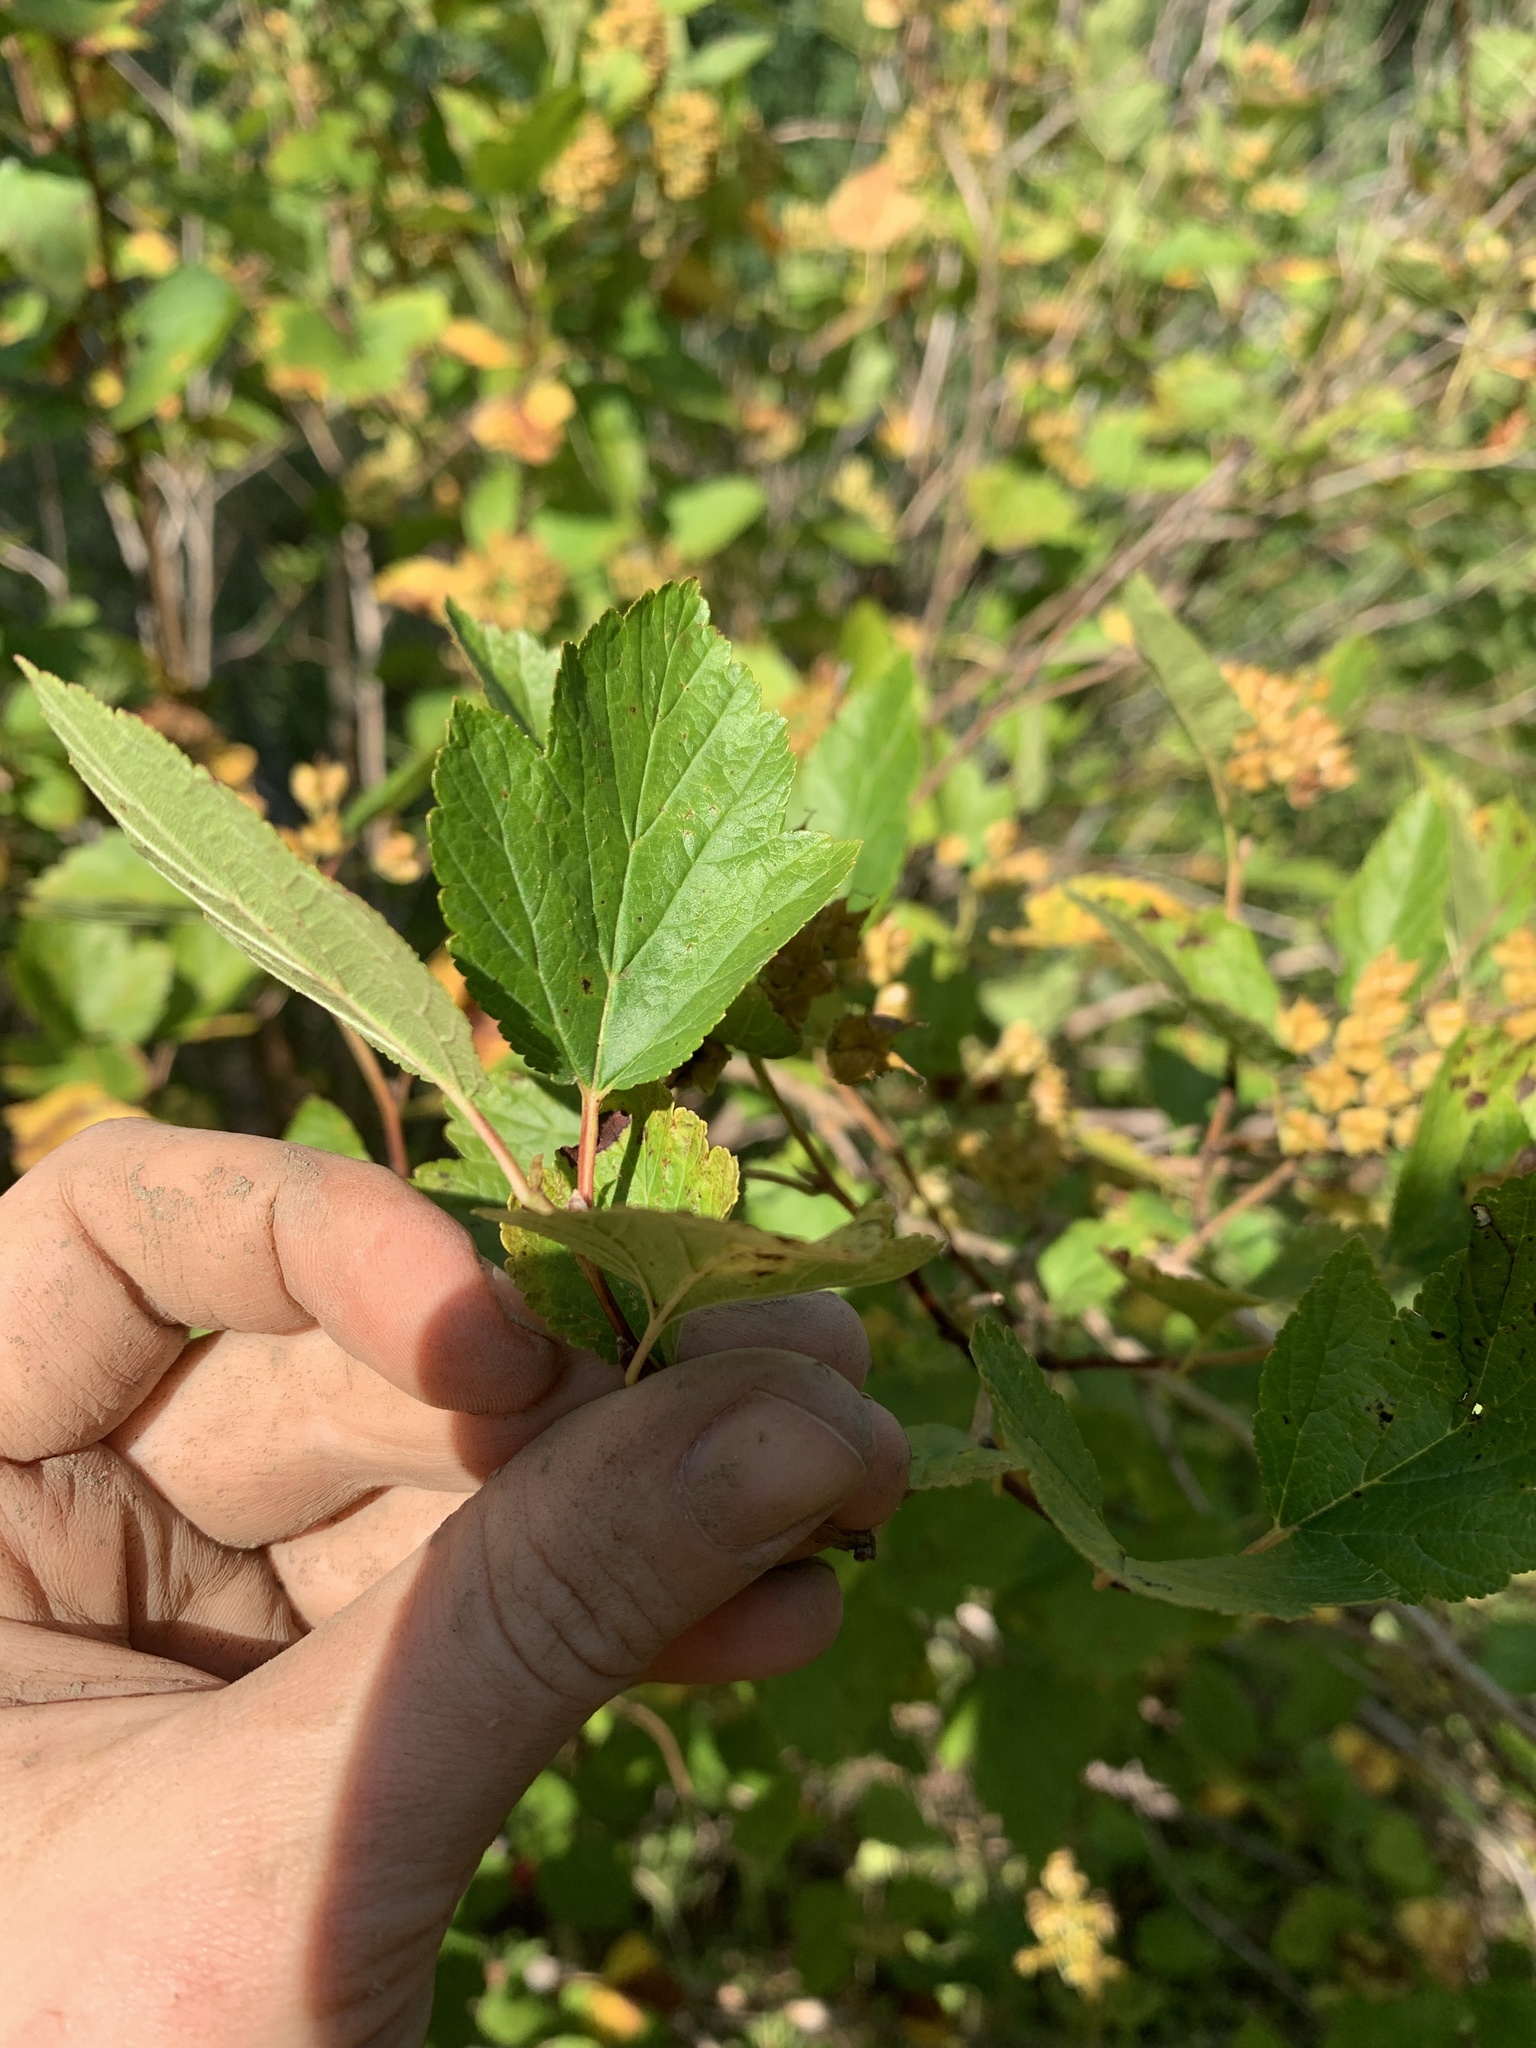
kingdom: Plantae
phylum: Tracheophyta
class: Magnoliopsida
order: Rosales
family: Rosaceae
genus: Physocarpus
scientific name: Physocarpus opulifolius
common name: Ninebark
